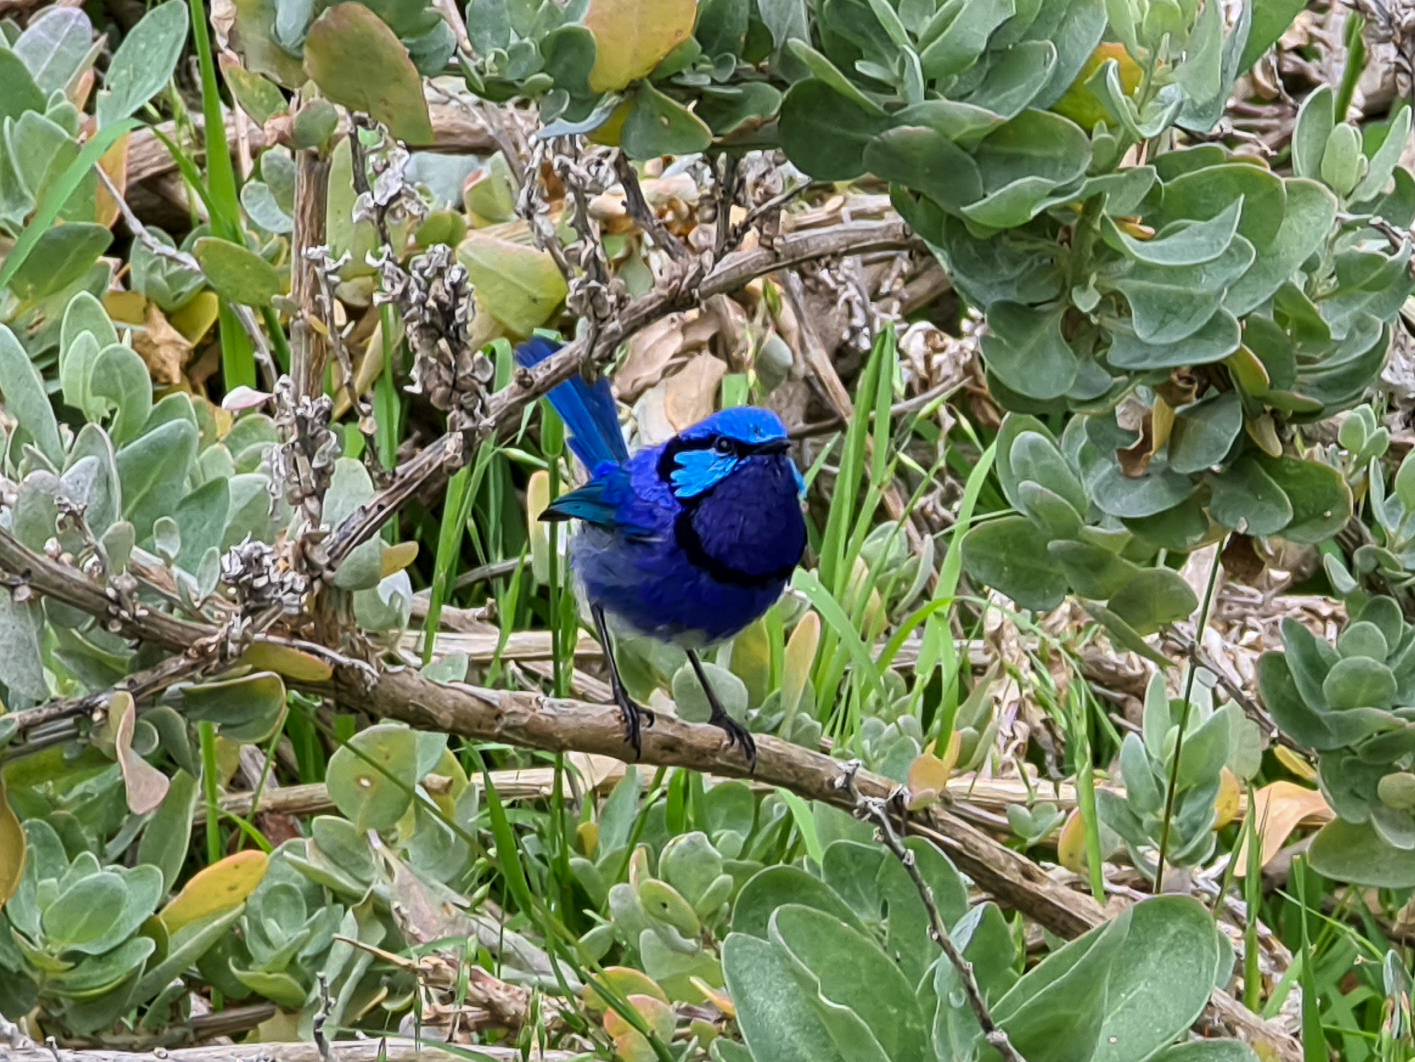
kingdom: Animalia
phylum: Chordata
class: Aves
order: Passeriformes
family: Maluridae
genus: Malurus
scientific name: Malurus splendens
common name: Splendid fairywren
